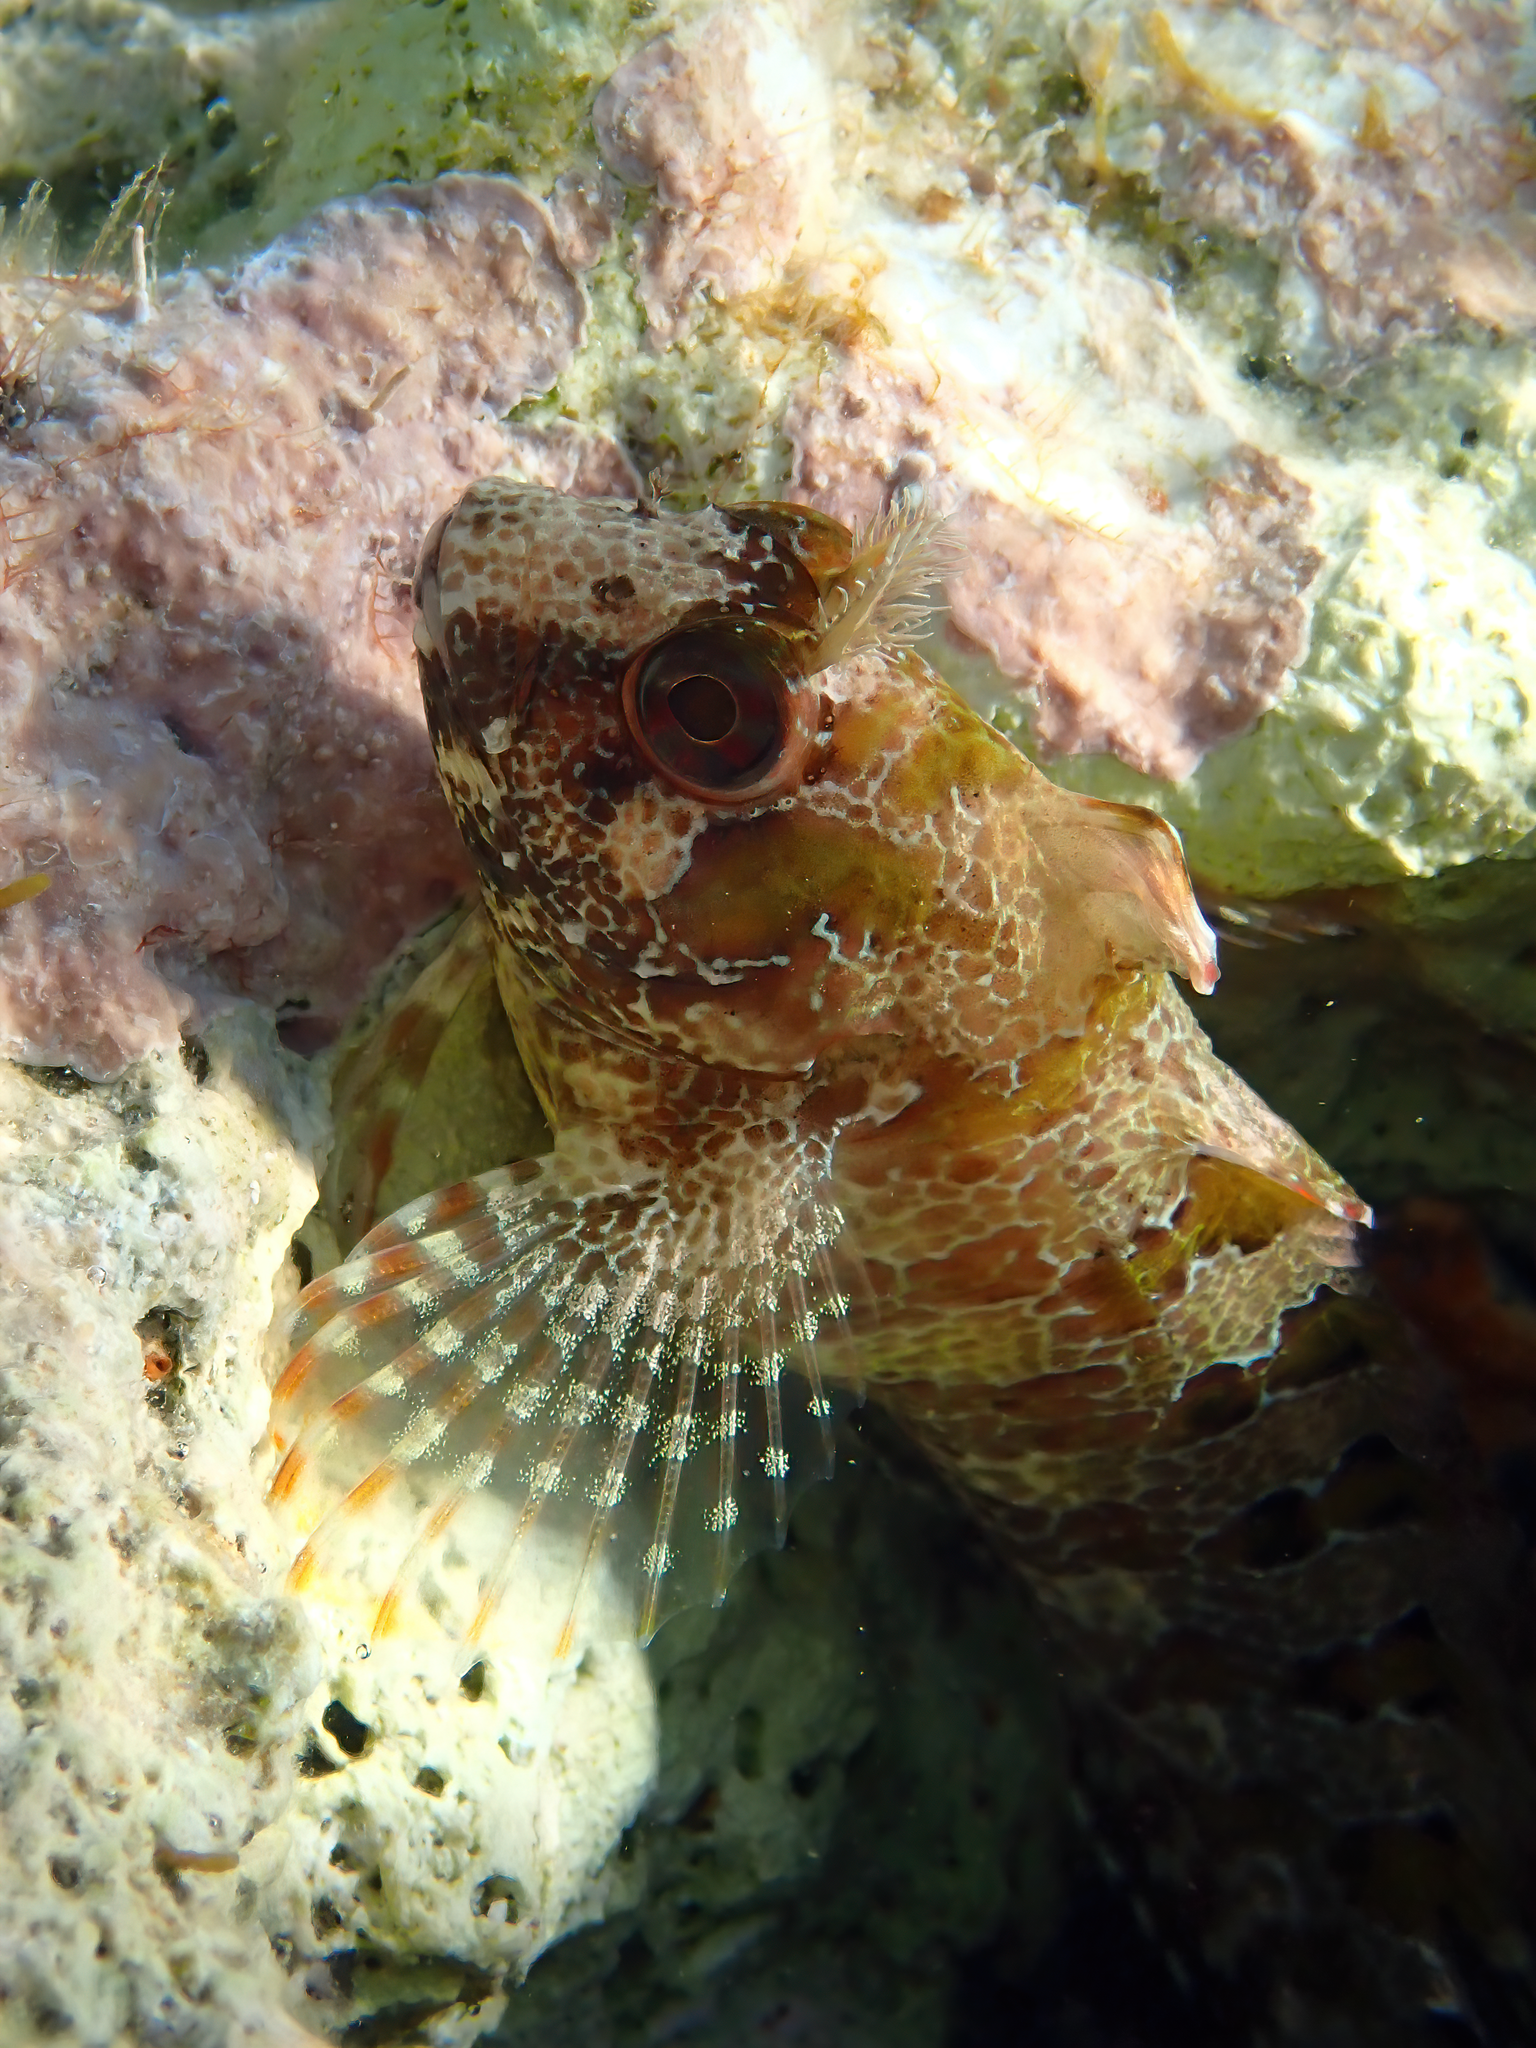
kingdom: Animalia
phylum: Chordata
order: Perciformes
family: Blenniidae
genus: Parablennius
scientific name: Parablennius gattorugine
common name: Tompot blenny
